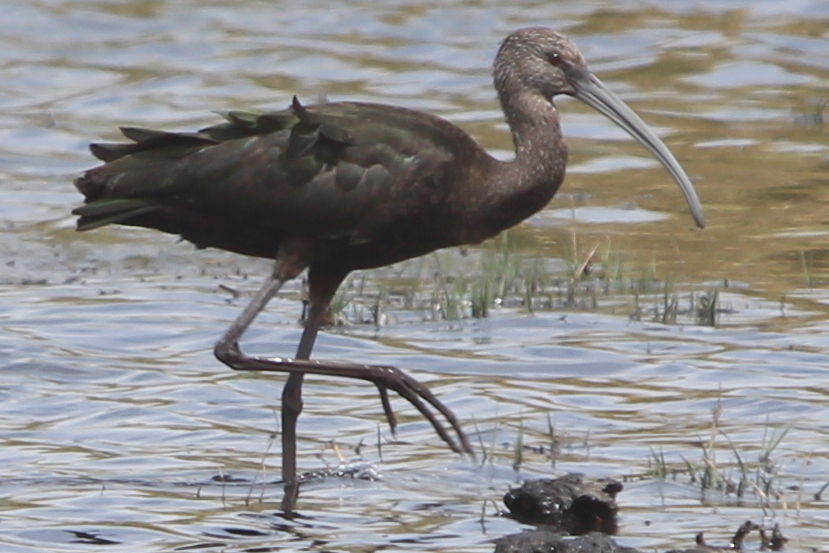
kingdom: Animalia
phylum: Chordata
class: Aves
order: Pelecaniformes
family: Threskiornithidae
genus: Plegadis
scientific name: Plegadis chihi
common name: White-faced ibis
